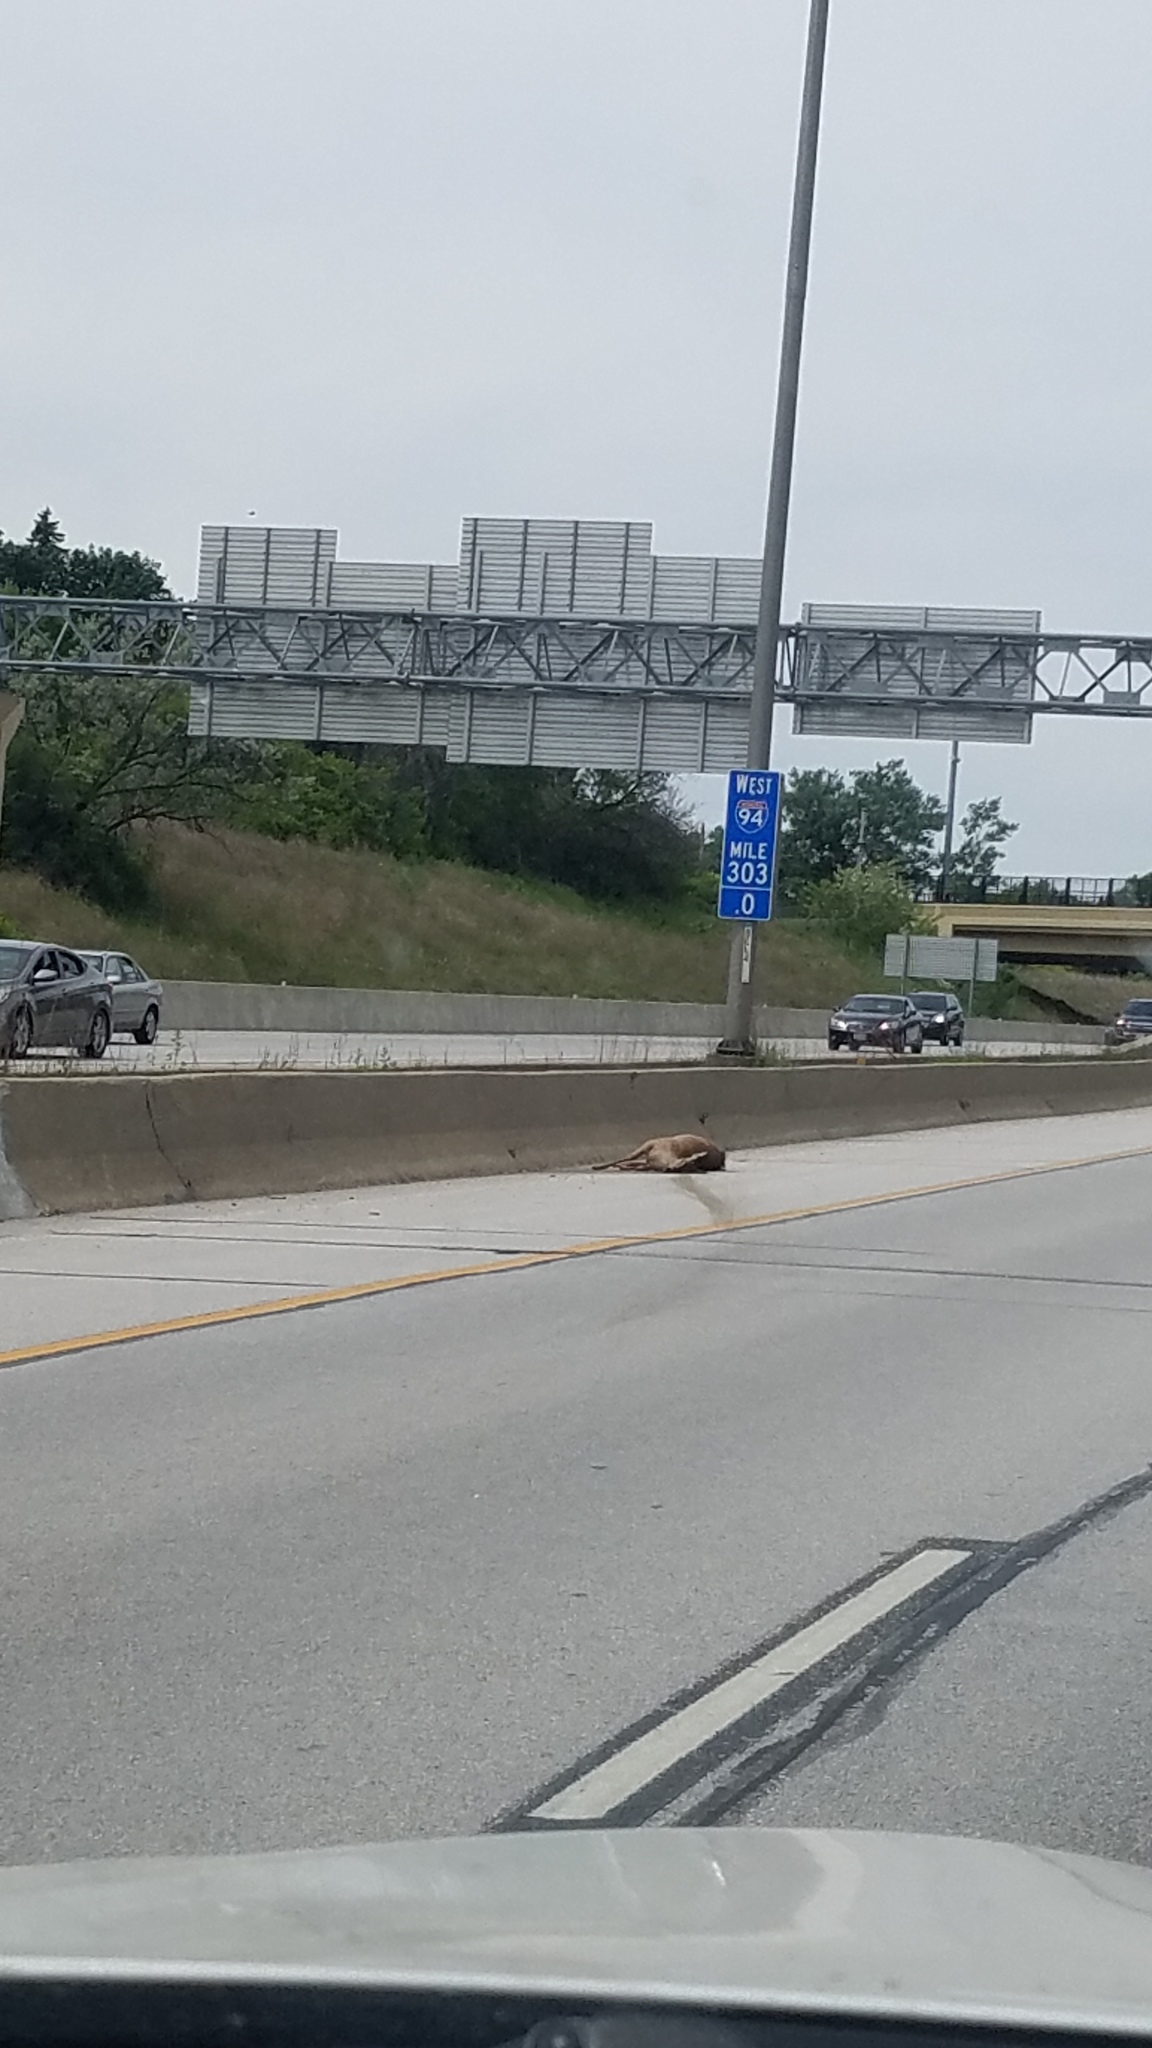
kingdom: Animalia
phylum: Chordata
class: Mammalia
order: Artiodactyla
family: Cervidae
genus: Odocoileus
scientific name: Odocoileus virginianus
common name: White-tailed deer
